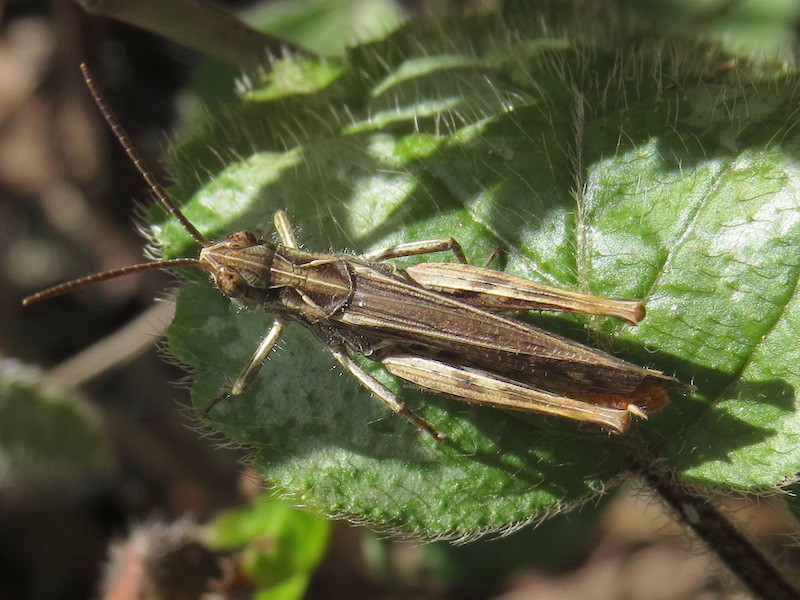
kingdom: Animalia
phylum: Arthropoda
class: Insecta
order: Orthoptera
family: Acrididae
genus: Chorthippus
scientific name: Chorthippus brunneus
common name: Field grasshopper
